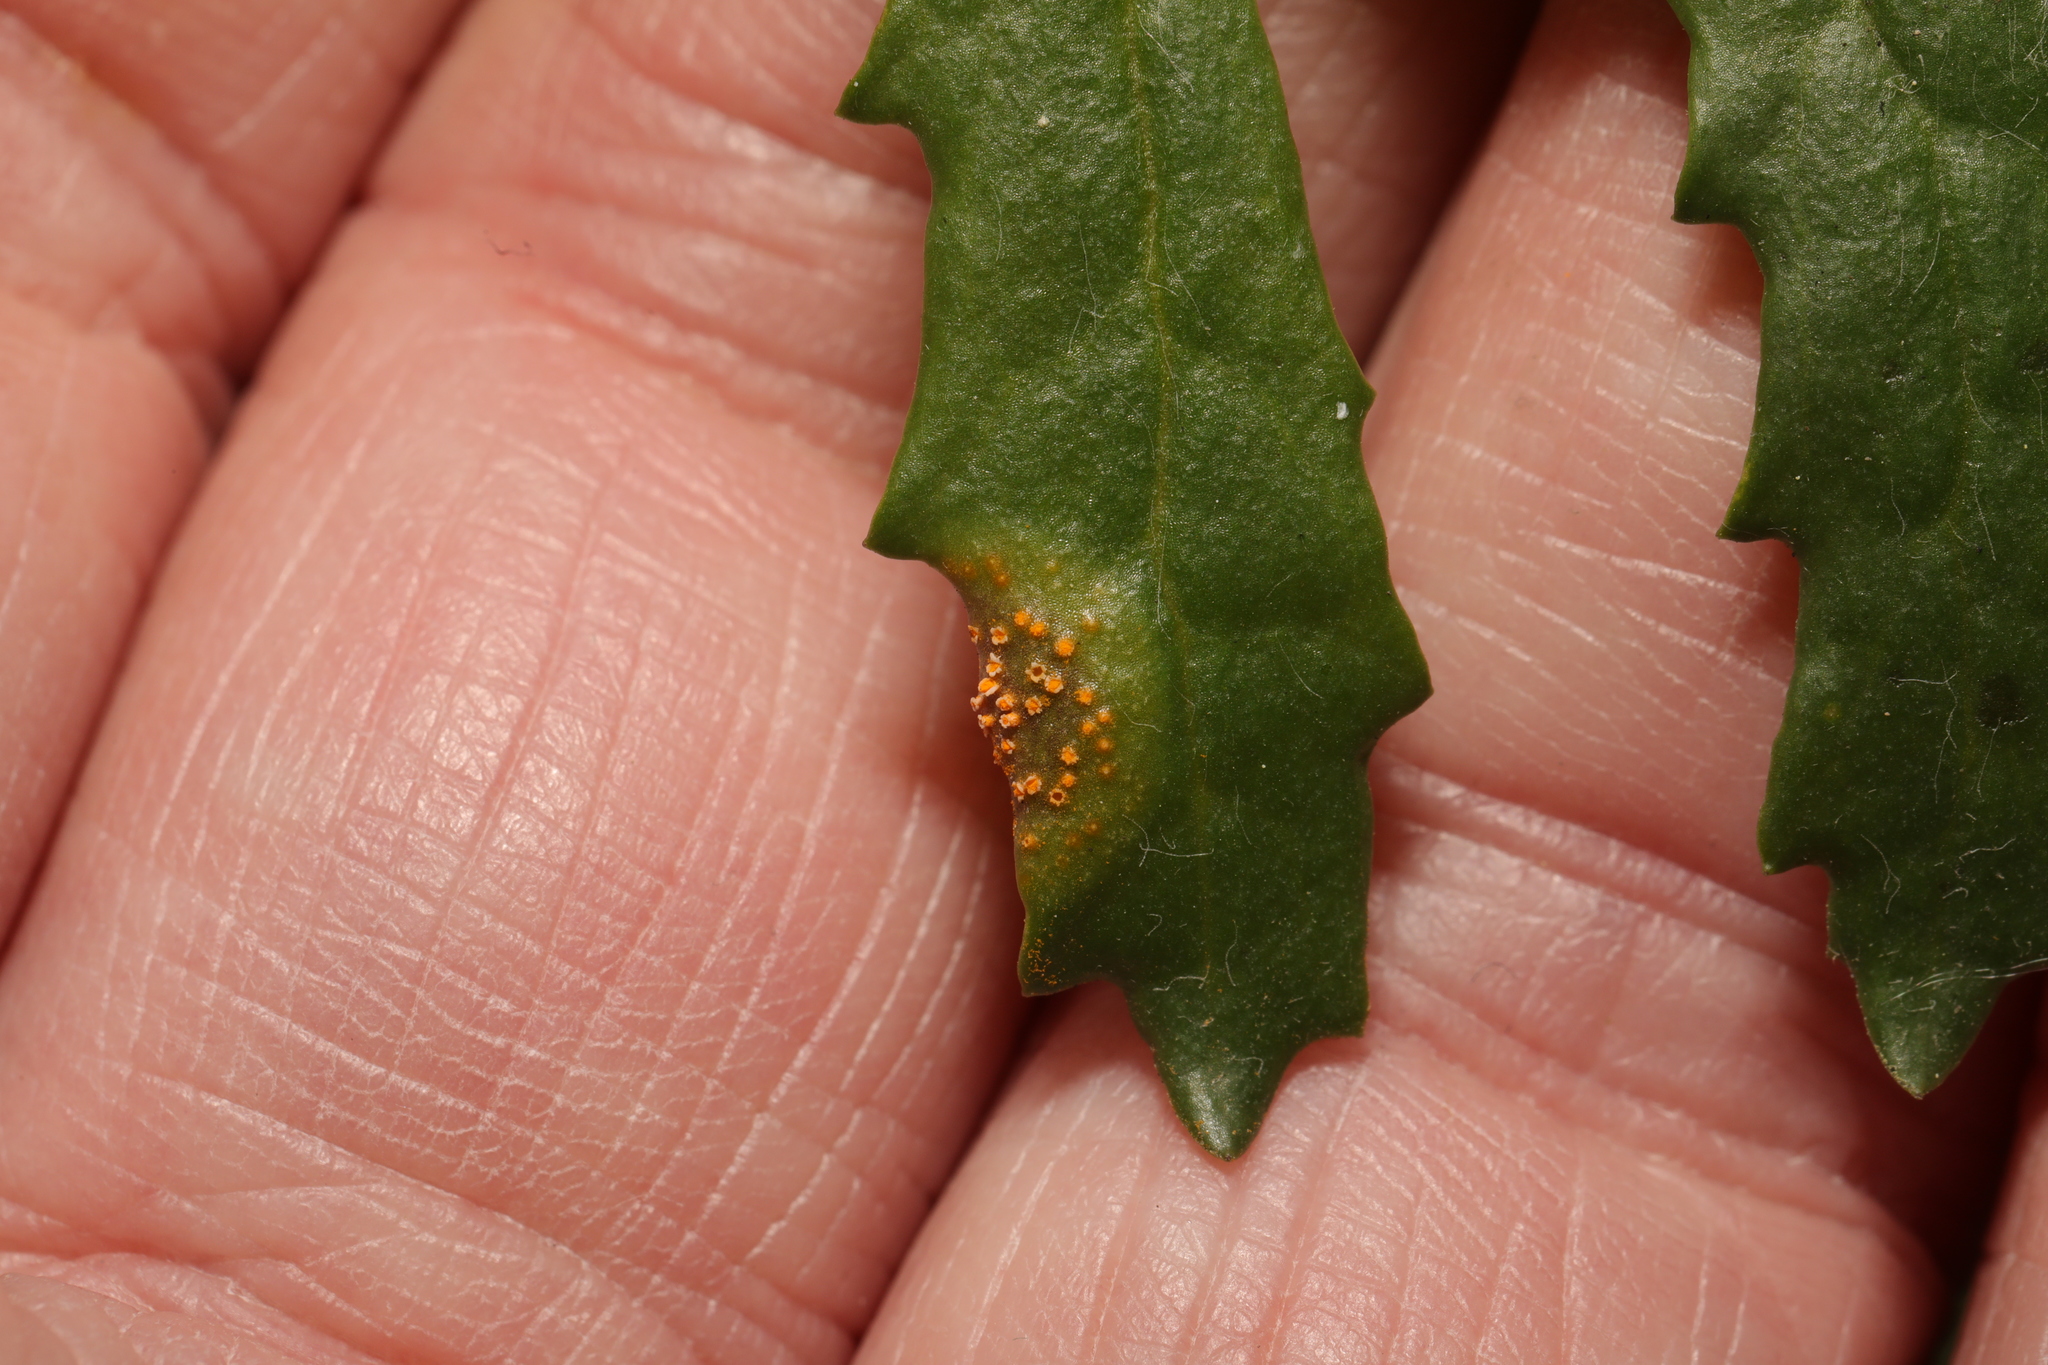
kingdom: Fungi
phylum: Basidiomycota
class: Pucciniomycetes
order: Pucciniales
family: Pucciniaceae
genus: Puccinia
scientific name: Puccinia lagenophorae
